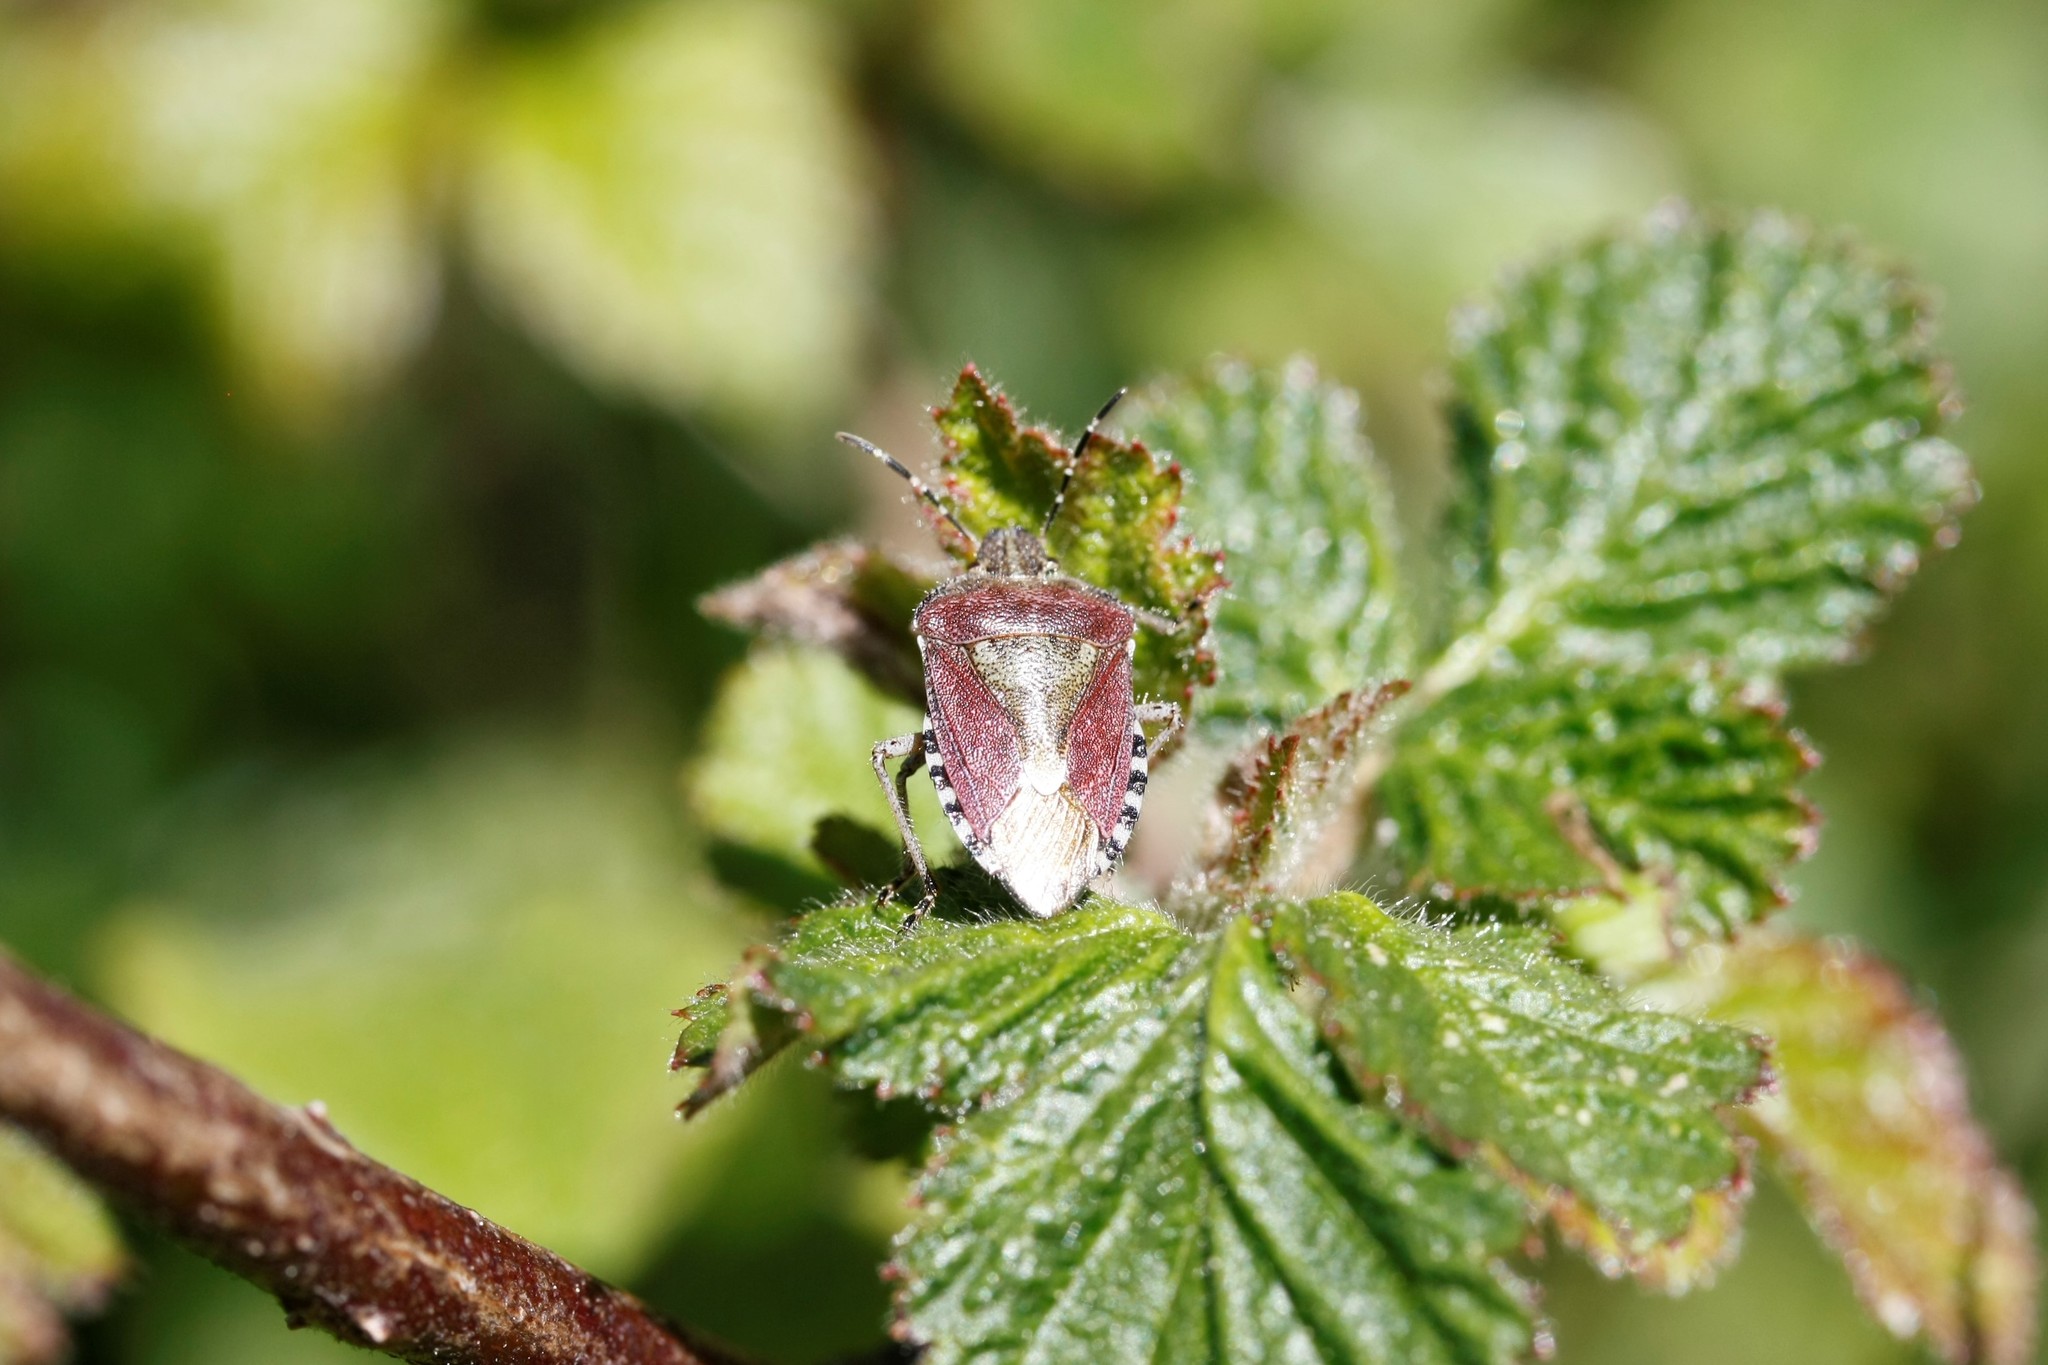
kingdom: Animalia
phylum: Arthropoda
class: Insecta
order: Hemiptera
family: Pentatomidae
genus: Dolycoris
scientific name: Dolycoris baccarum
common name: Sloe bug
